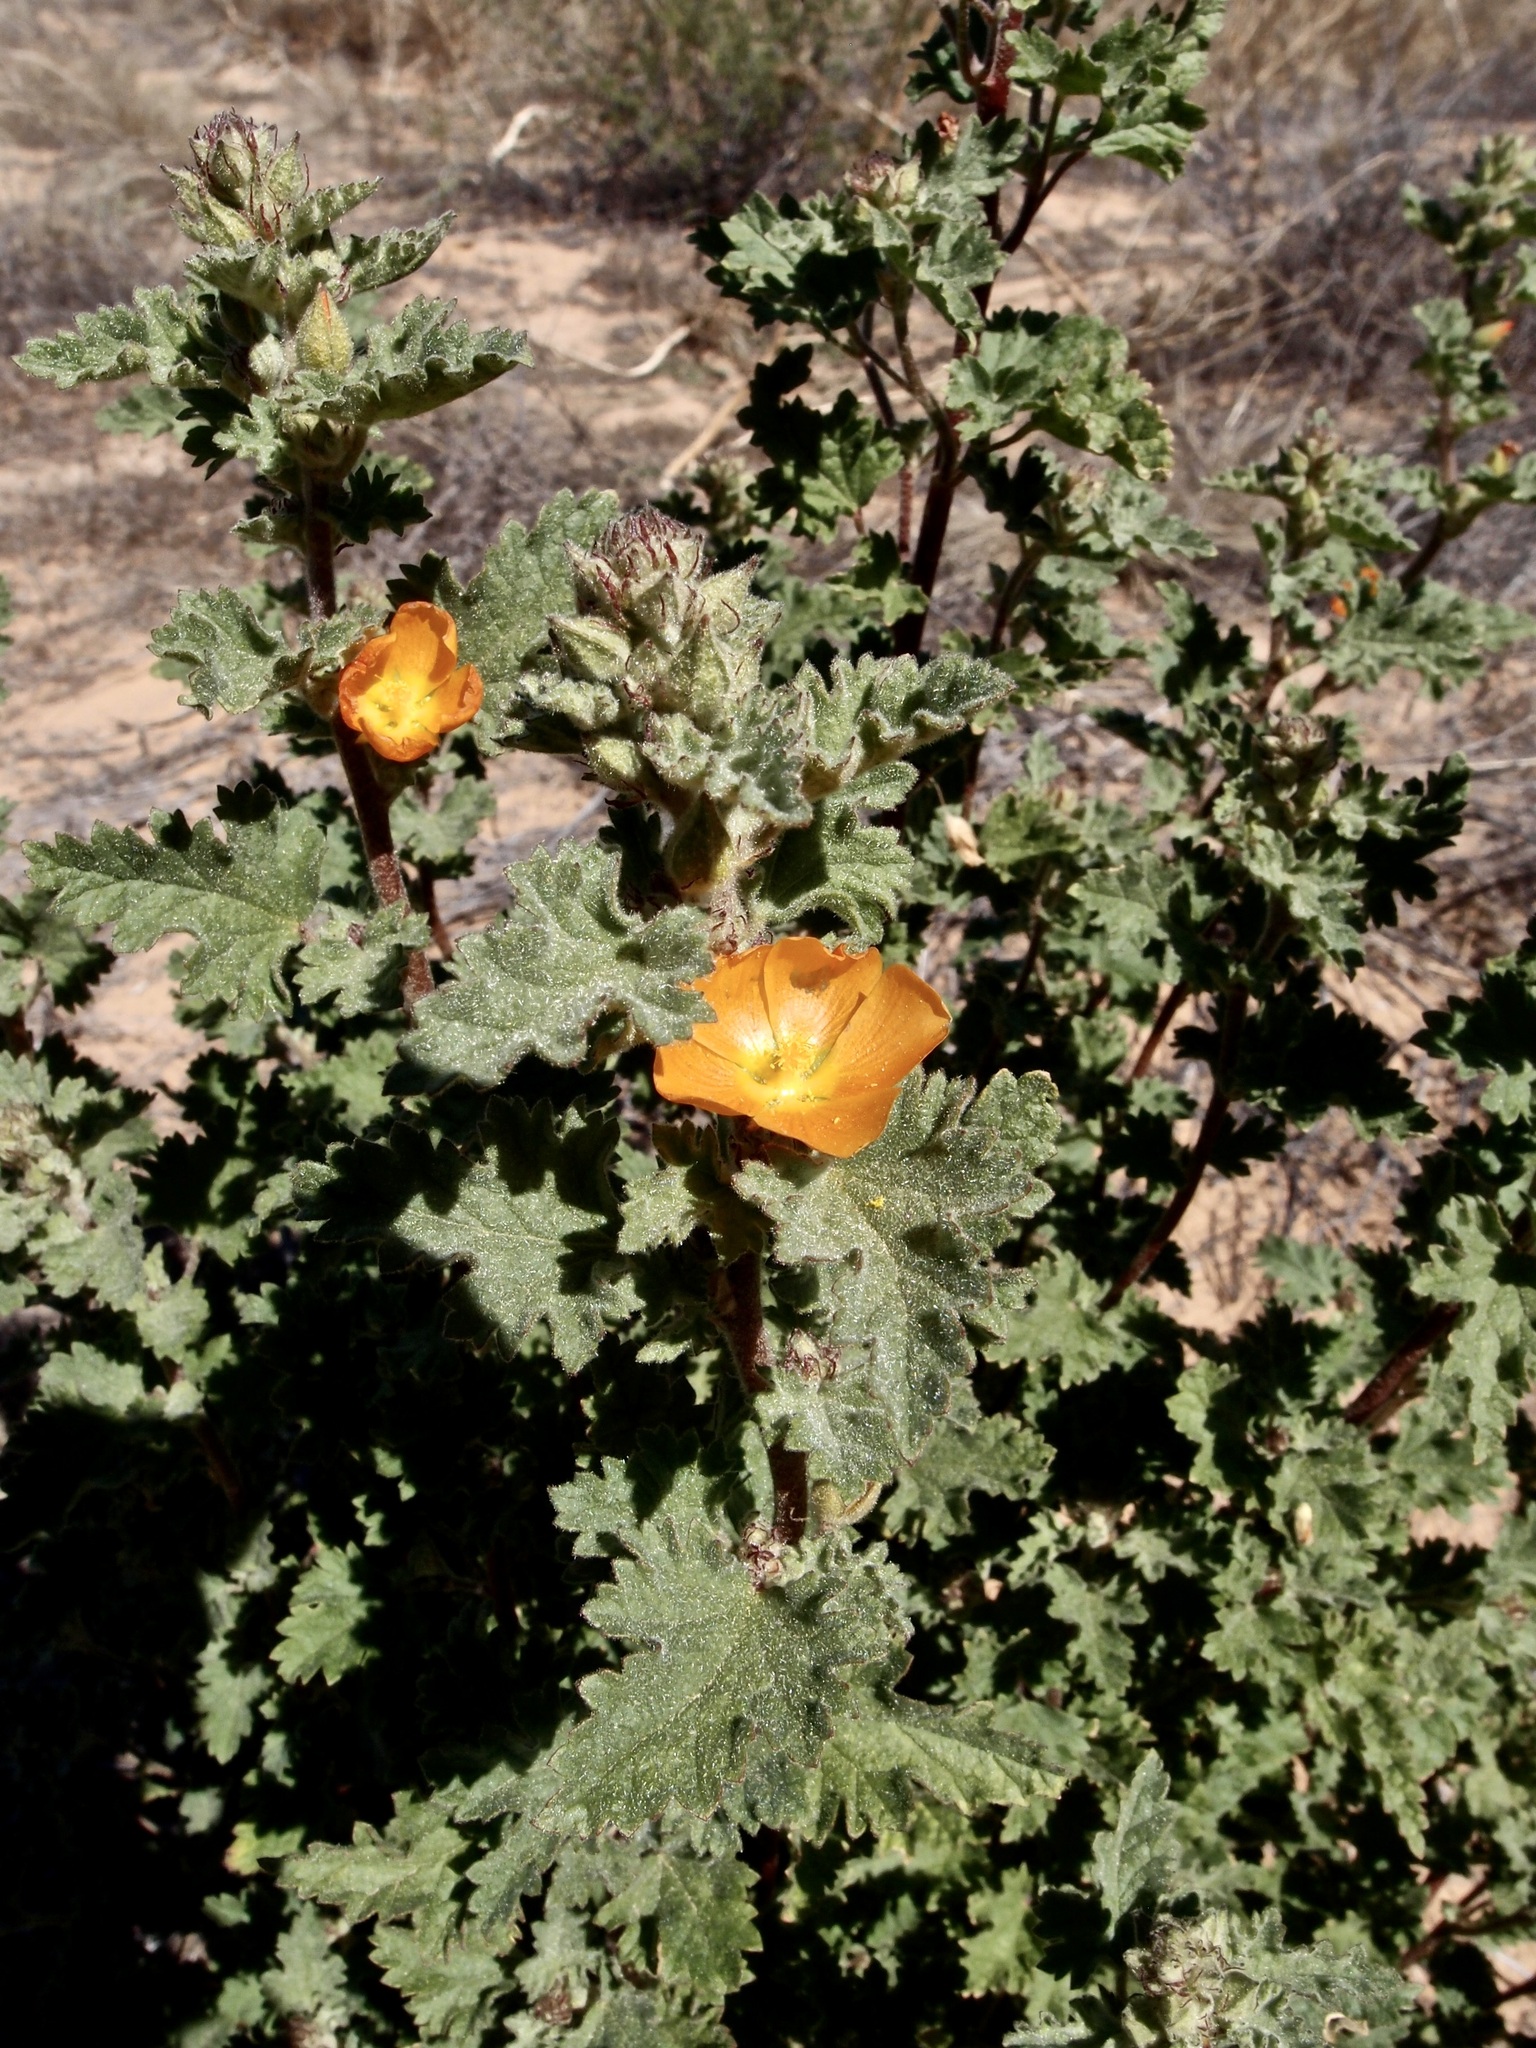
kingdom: Plantae
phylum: Tracheophyta
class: Magnoliopsida
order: Malvales
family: Malvaceae
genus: Sphaeralcea
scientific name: Sphaeralcea coulteri
